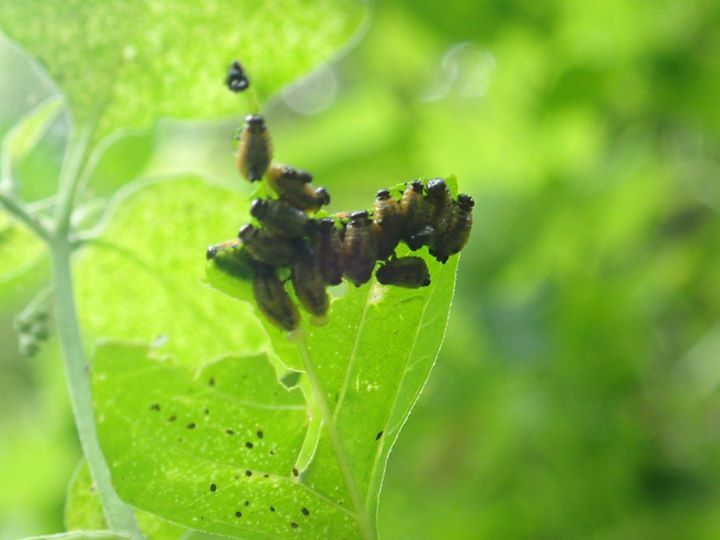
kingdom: Animalia
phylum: Arthropoda
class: Insecta
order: Coleoptera
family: Chrysomelidae
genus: Lema
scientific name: Lema solani
